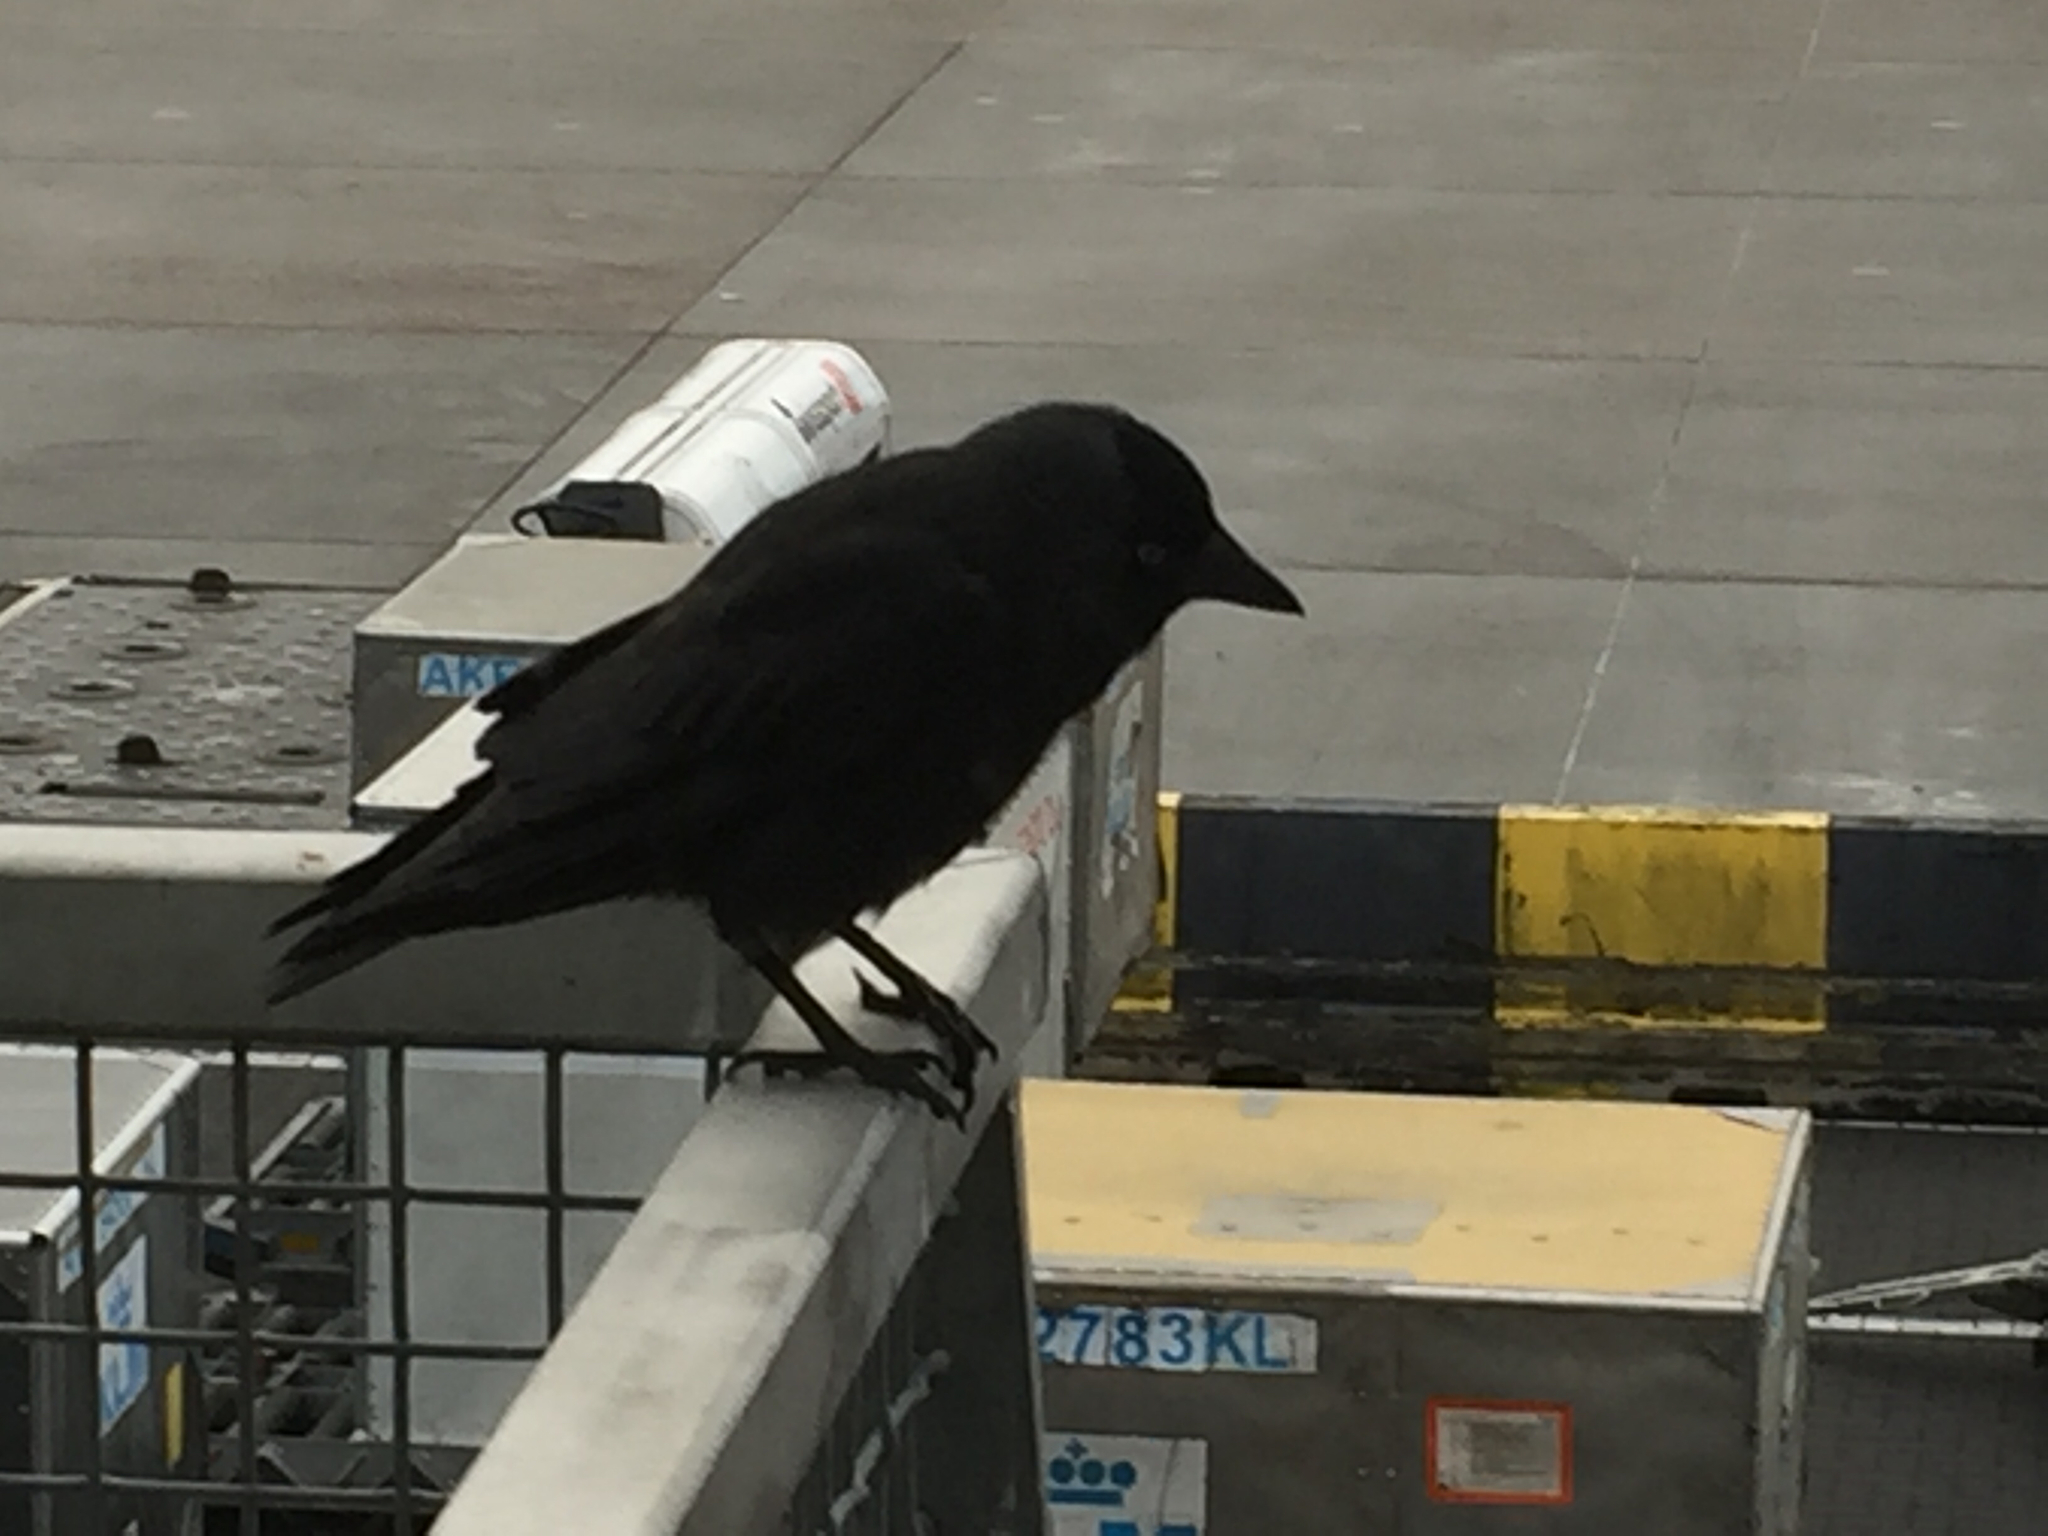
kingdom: Animalia
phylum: Chordata
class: Aves
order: Passeriformes
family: Corvidae
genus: Coloeus
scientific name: Coloeus monedula
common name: Western jackdaw
